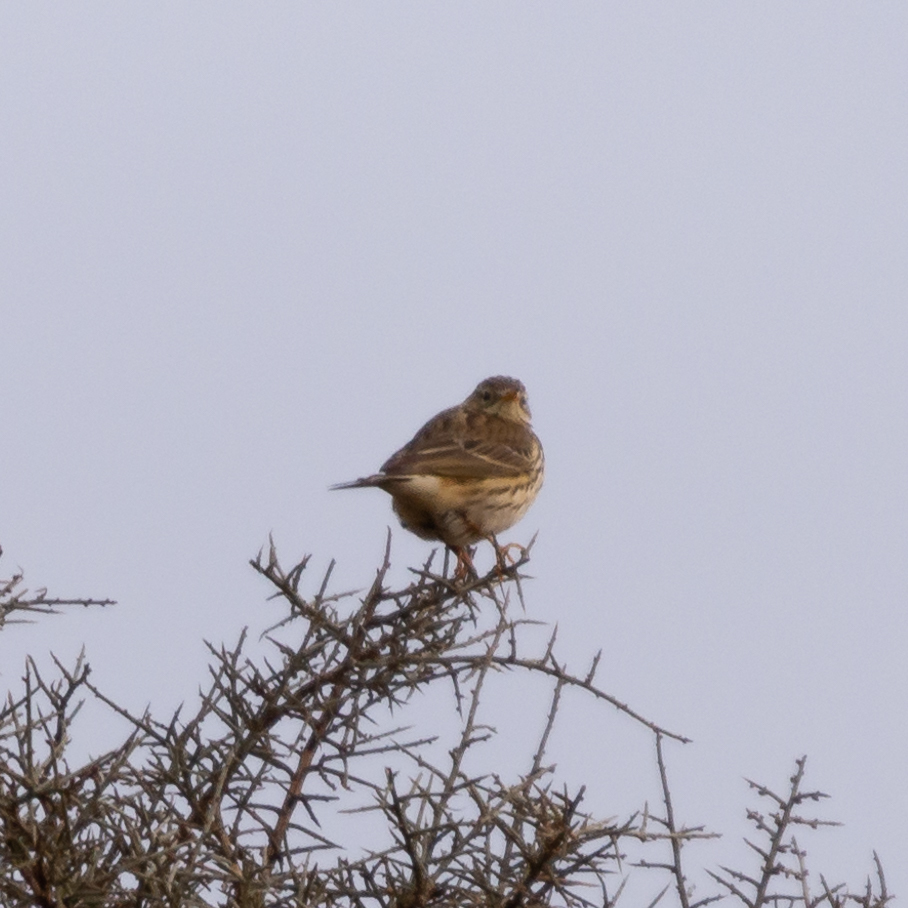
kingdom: Animalia
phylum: Chordata
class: Aves
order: Passeriformes
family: Motacillidae
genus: Anthus
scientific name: Anthus pratensis
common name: Meadow pipit
